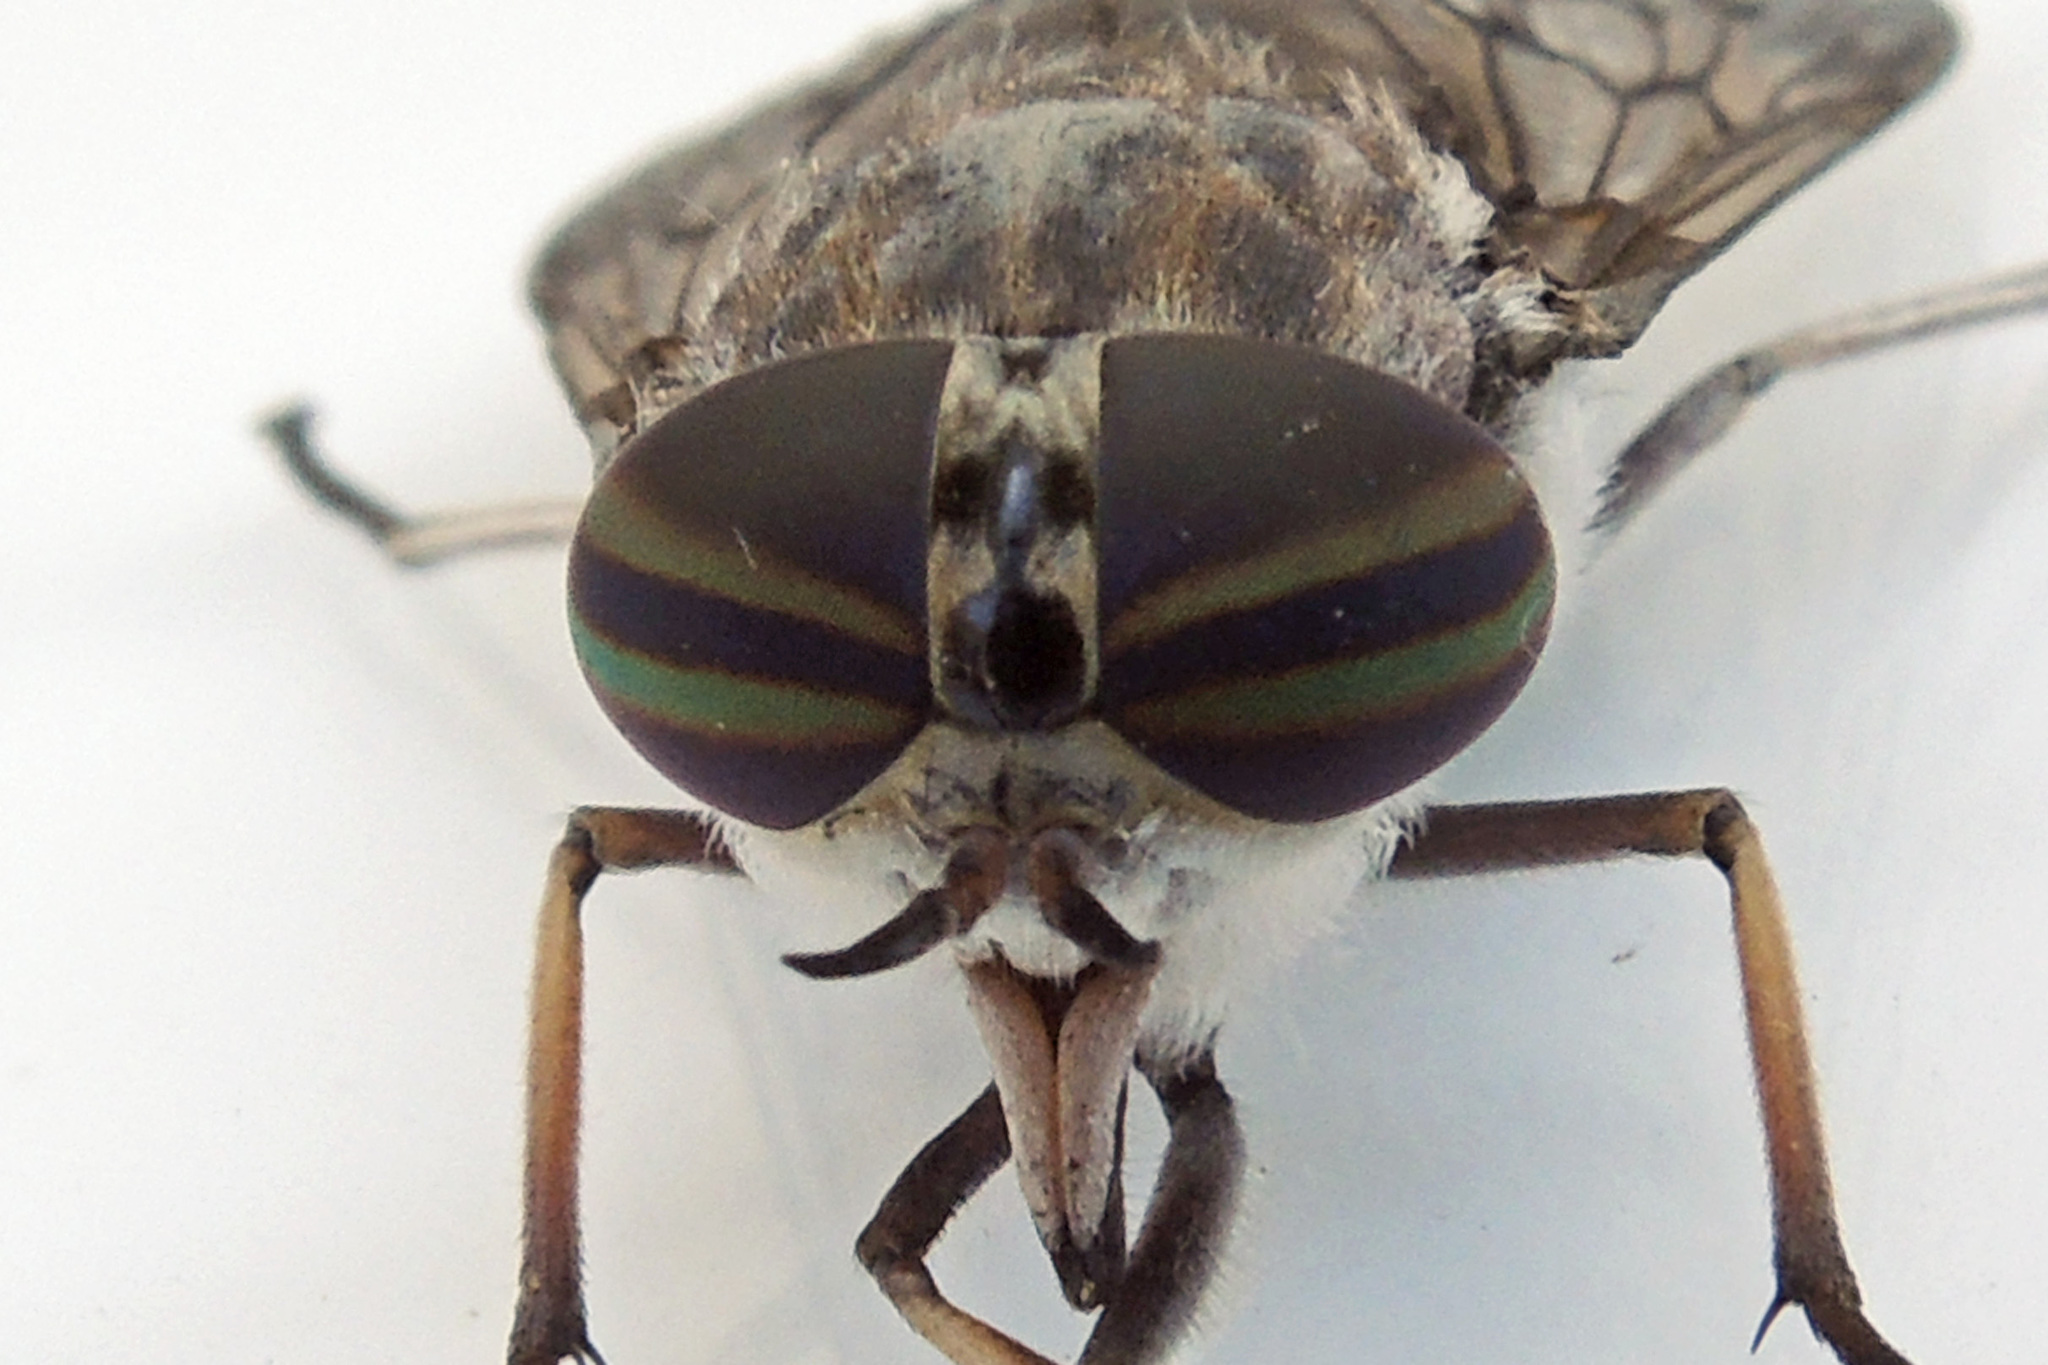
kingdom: Animalia
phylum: Arthropoda
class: Insecta
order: Diptera
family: Tabanidae
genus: Tabanus
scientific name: Tabanus reinwardtii
